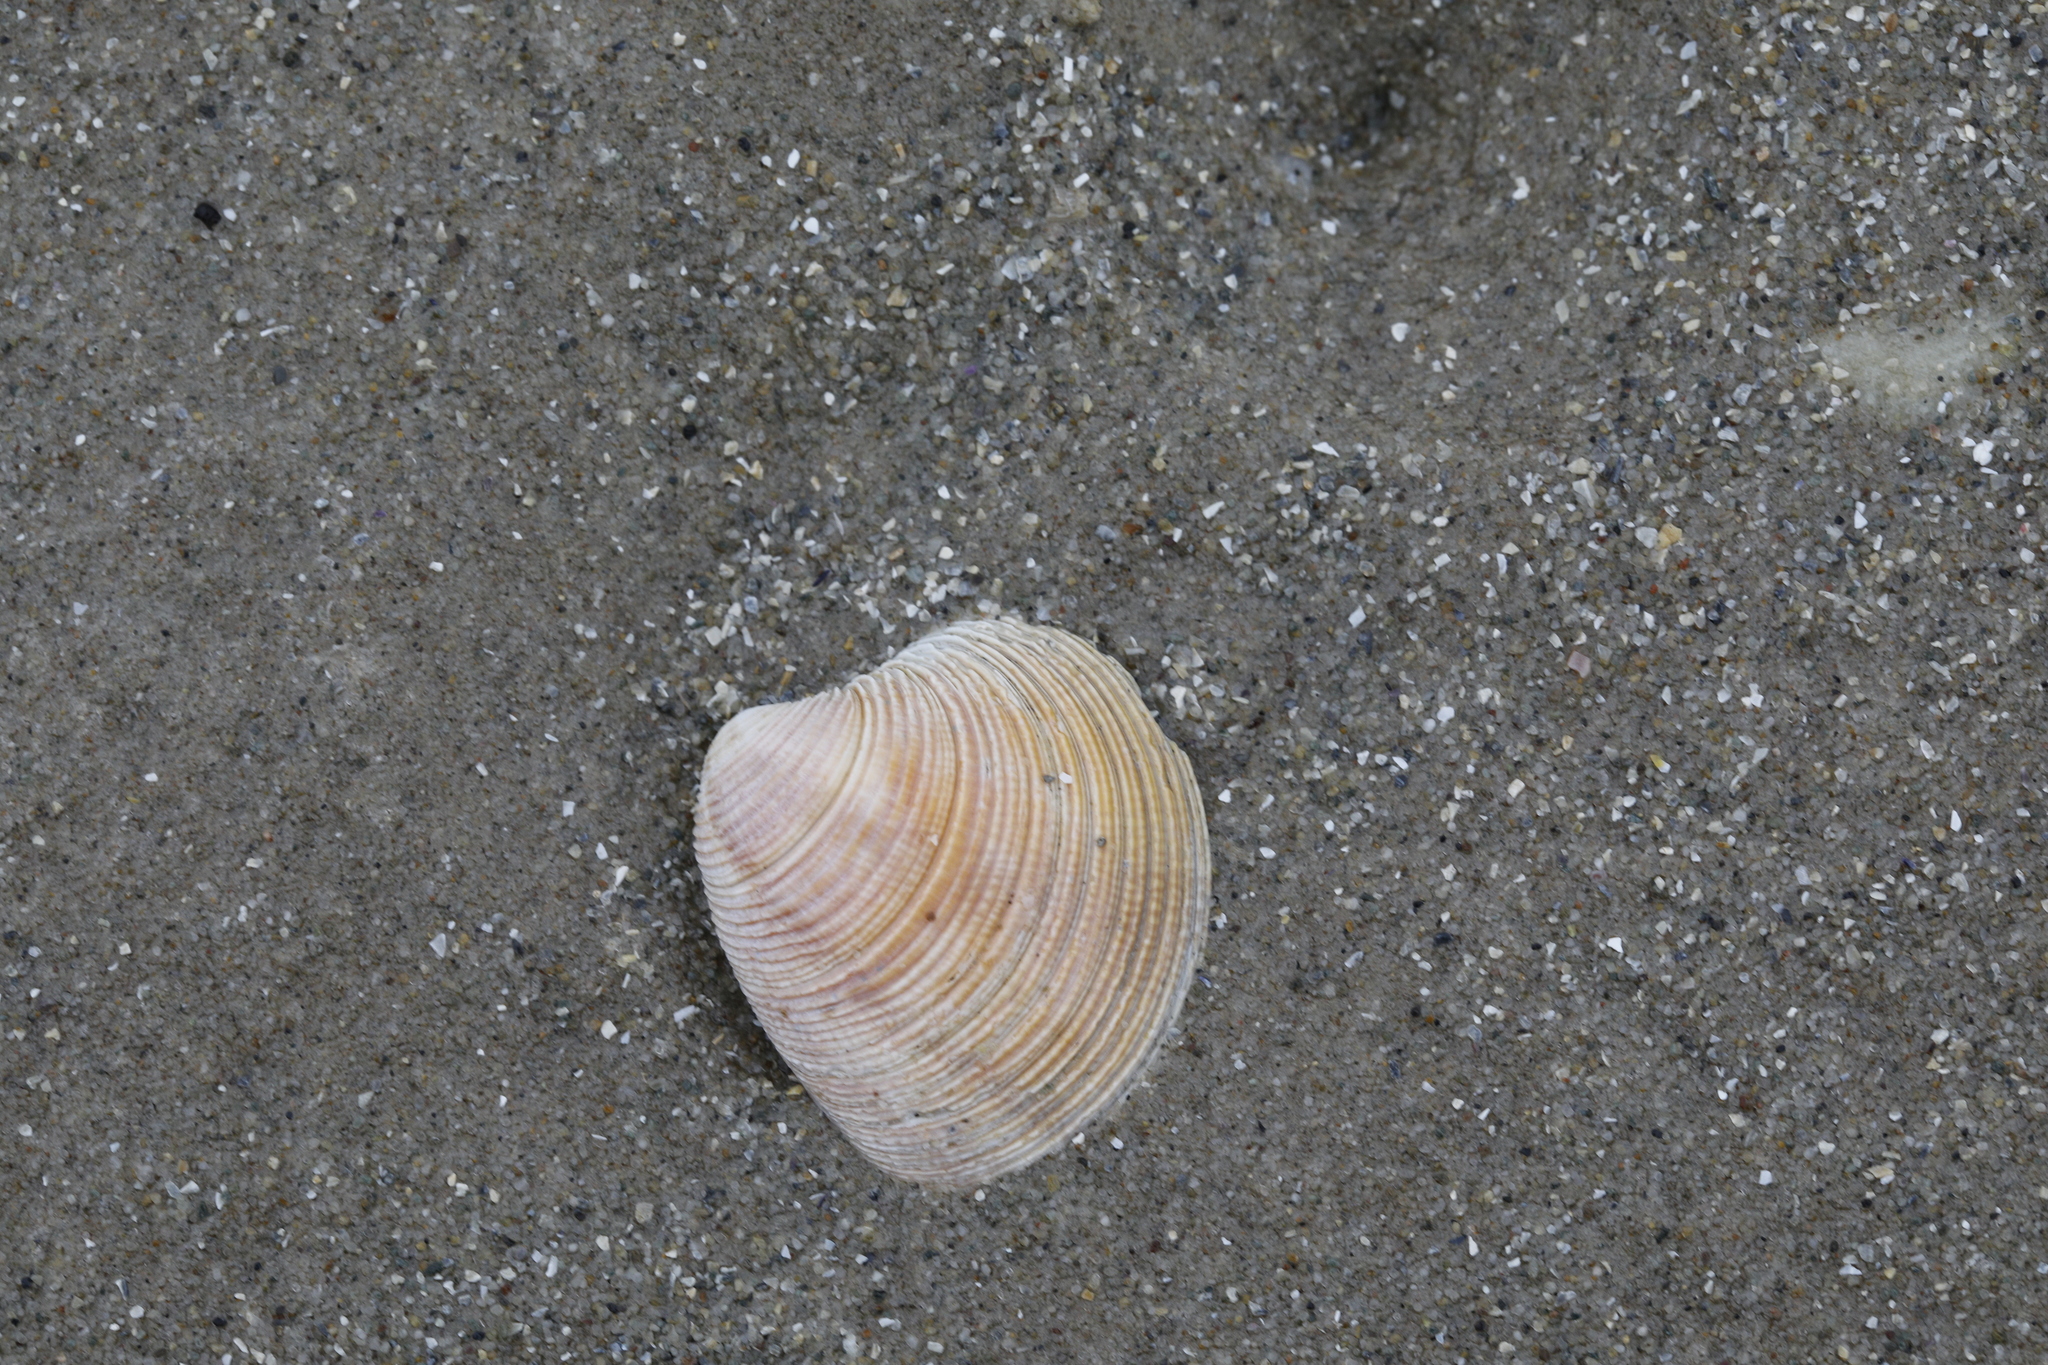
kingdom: Animalia
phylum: Mollusca
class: Bivalvia
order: Venerida
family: Veneridae
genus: Chamelea
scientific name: Chamelea striatula
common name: Striped venus
